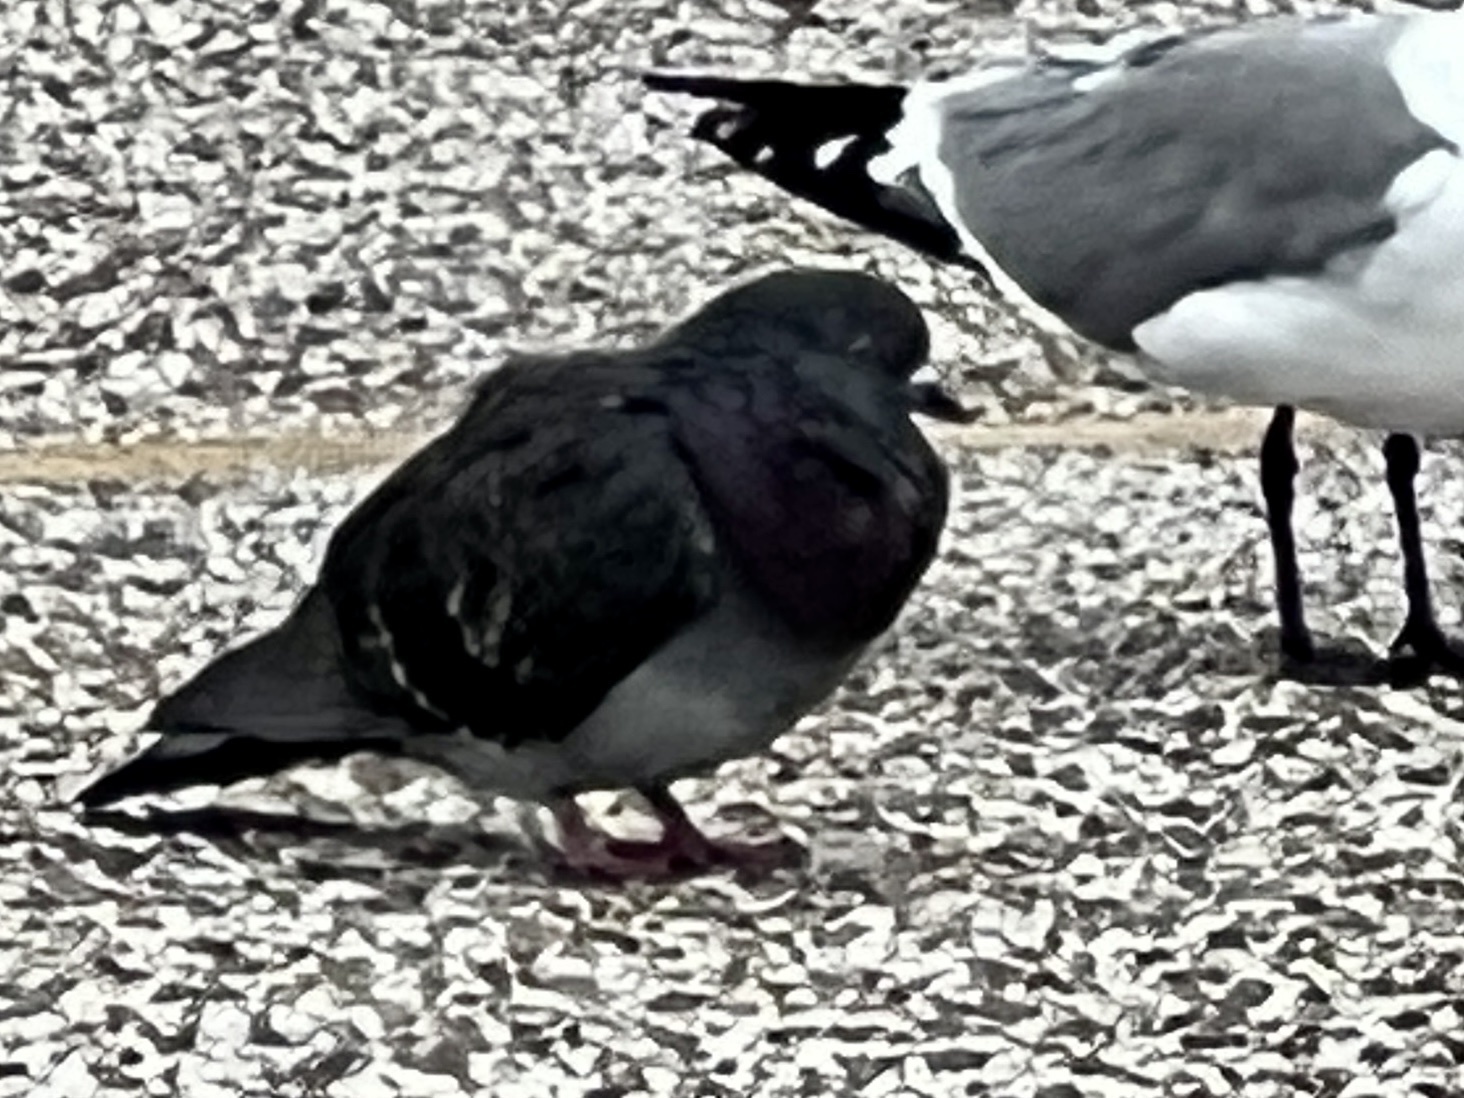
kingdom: Animalia
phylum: Chordata
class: Aves
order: Columbiformes
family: Columbidae
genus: Columba
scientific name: Columba livia
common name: Rock pigeon
